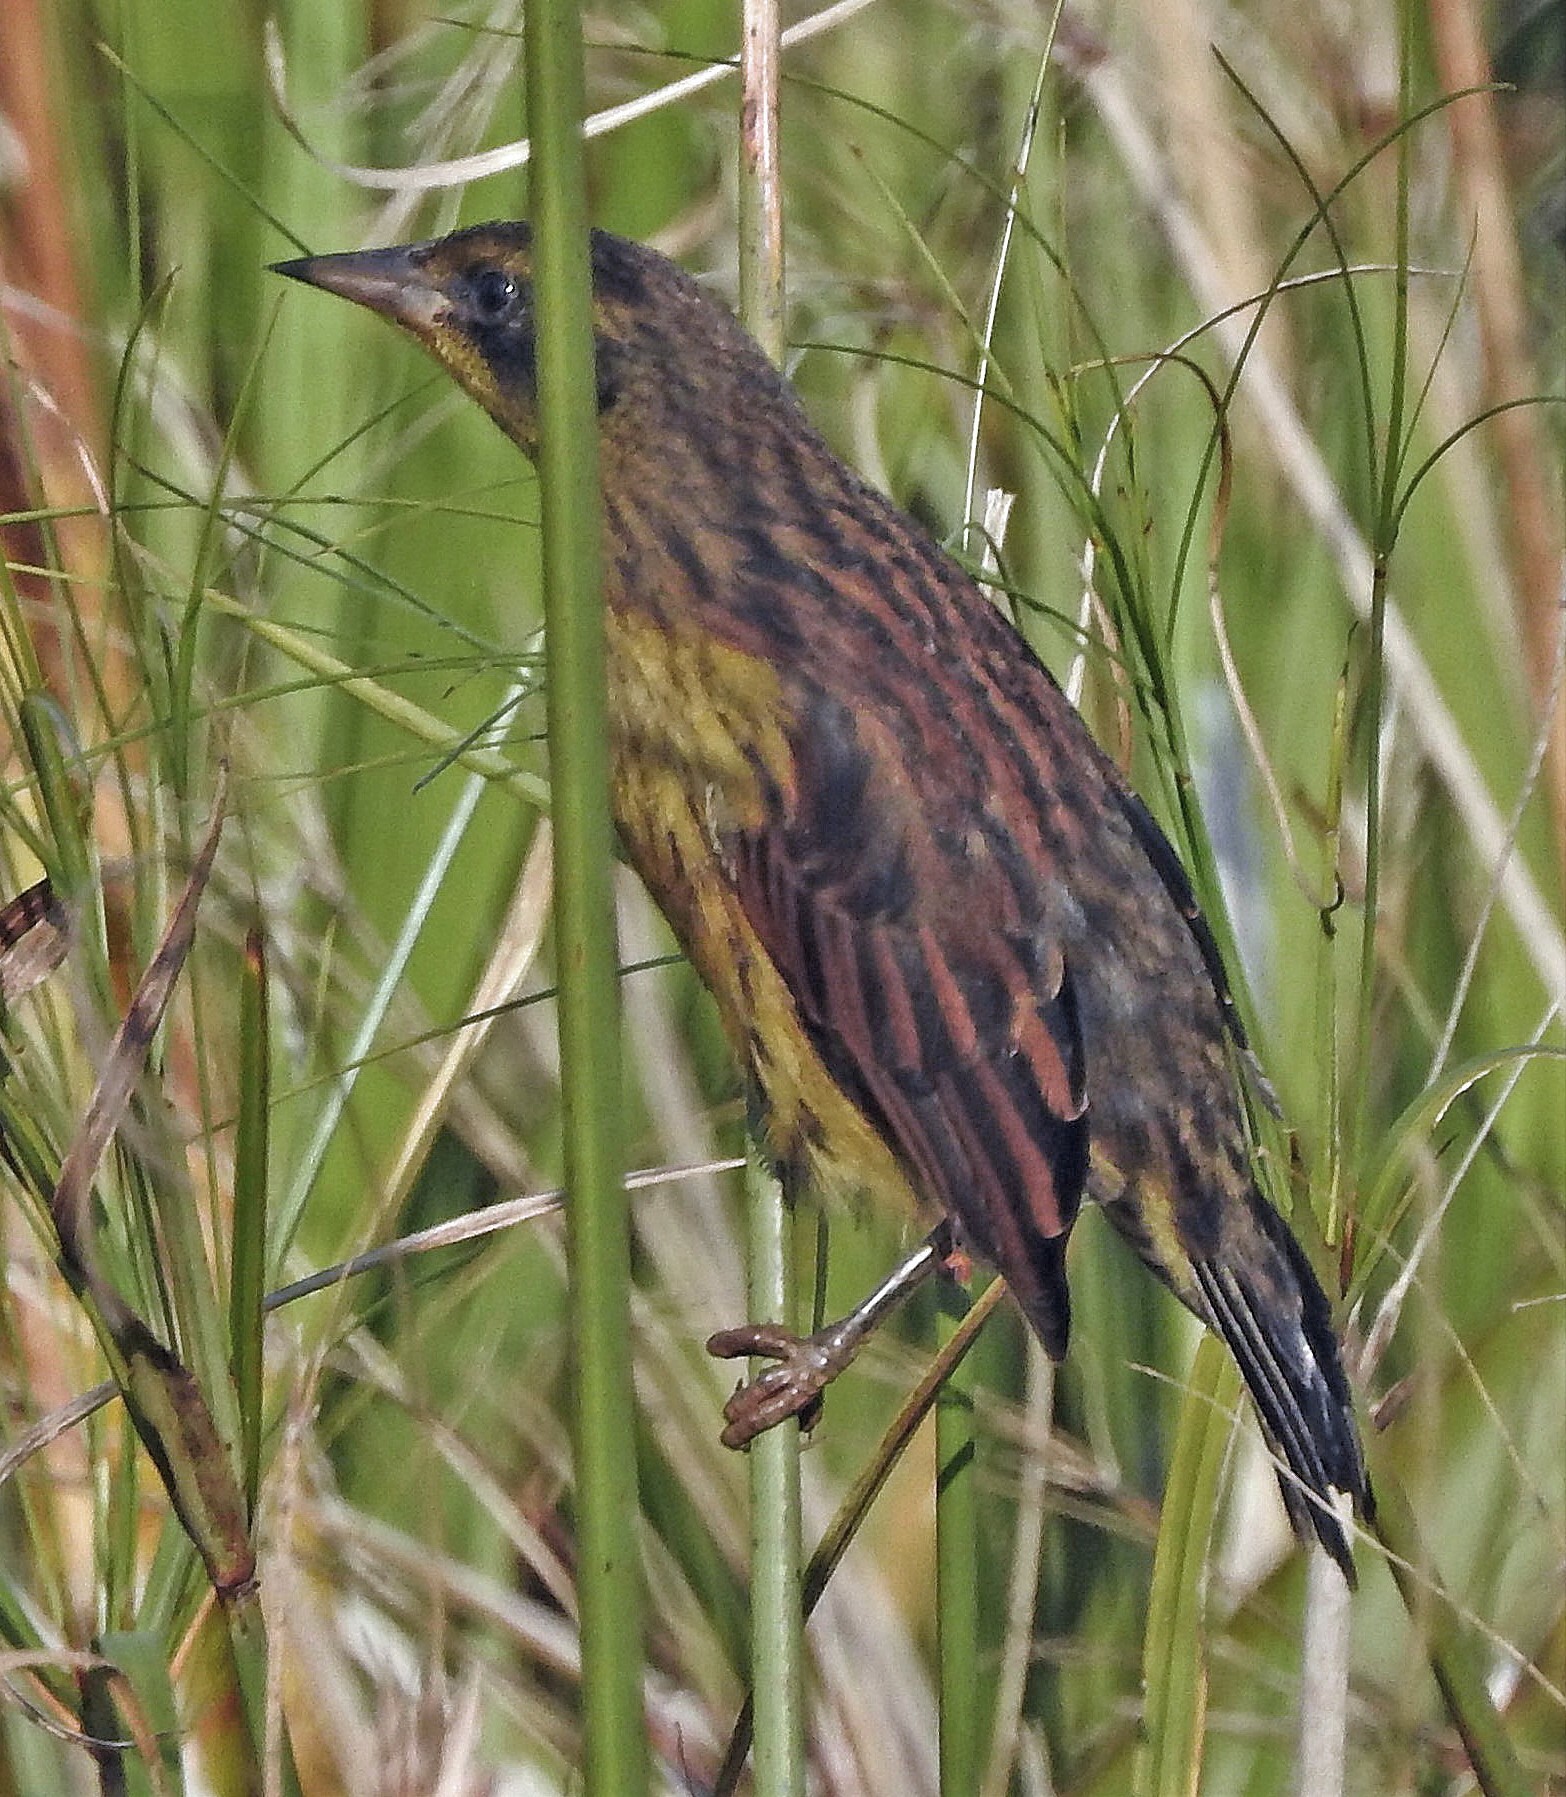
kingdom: Animalia
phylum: Chordata
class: Aves
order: Passeriformes
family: Icteridae
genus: Agelasticus
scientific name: Agelasticus cyanopus
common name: Unicolored blackbird
